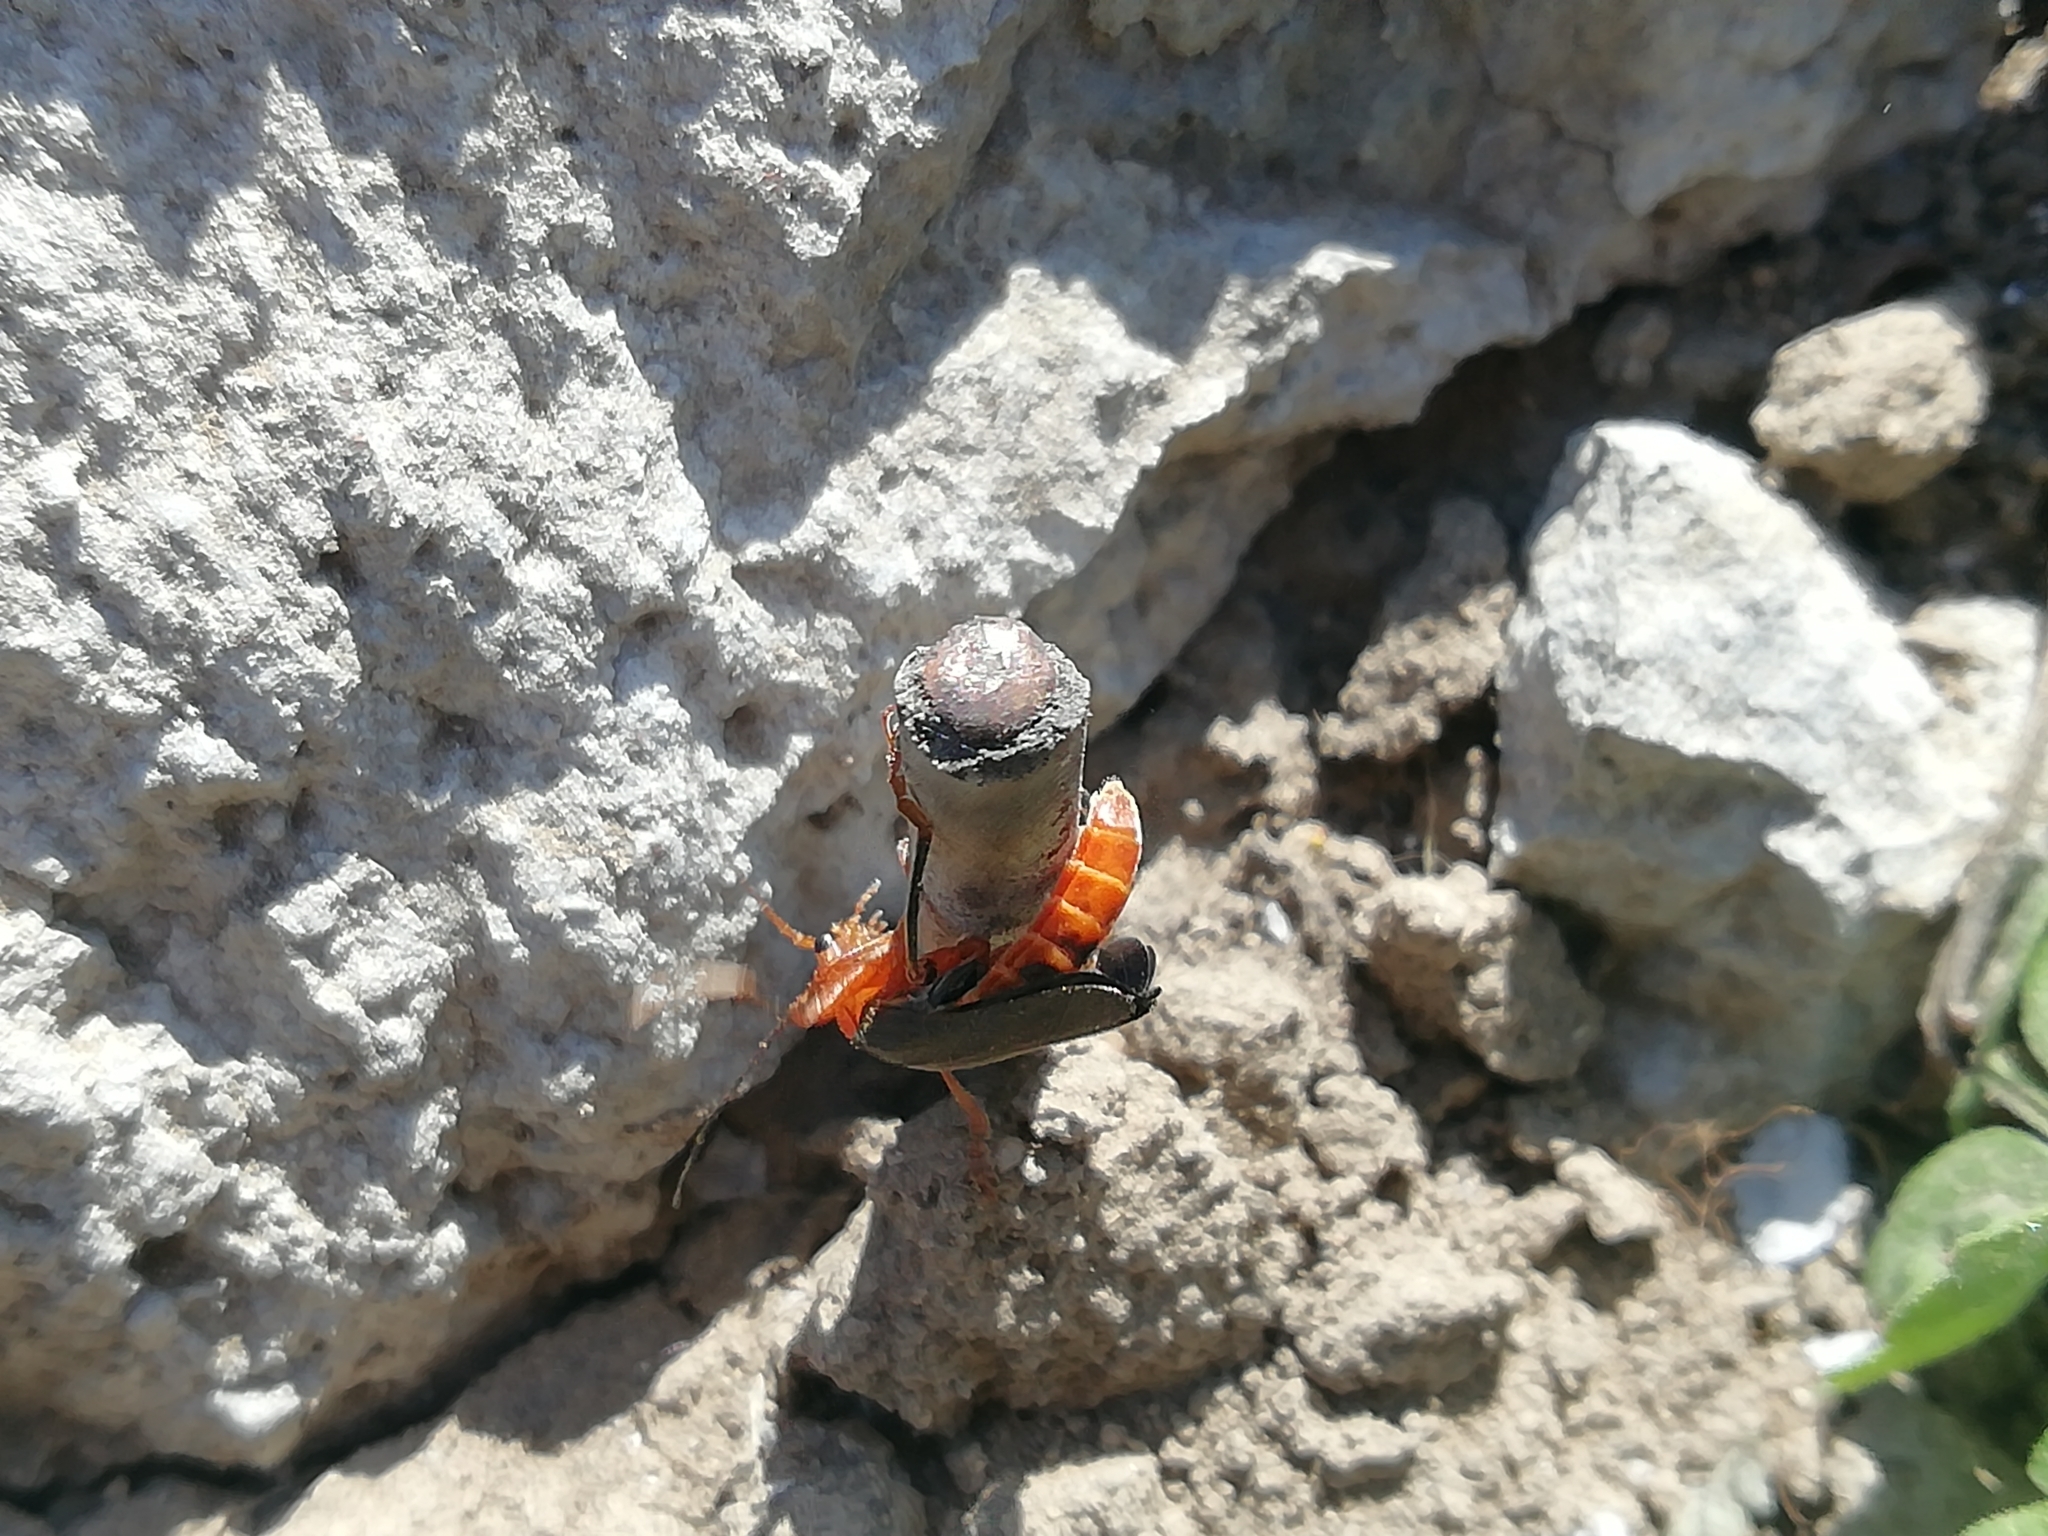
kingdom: Animalia
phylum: Arthropoda
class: Insecta
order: Coleoptera
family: Cantharidae
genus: Cantharis
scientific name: Cantharis livida
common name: Livid soldier beetle
